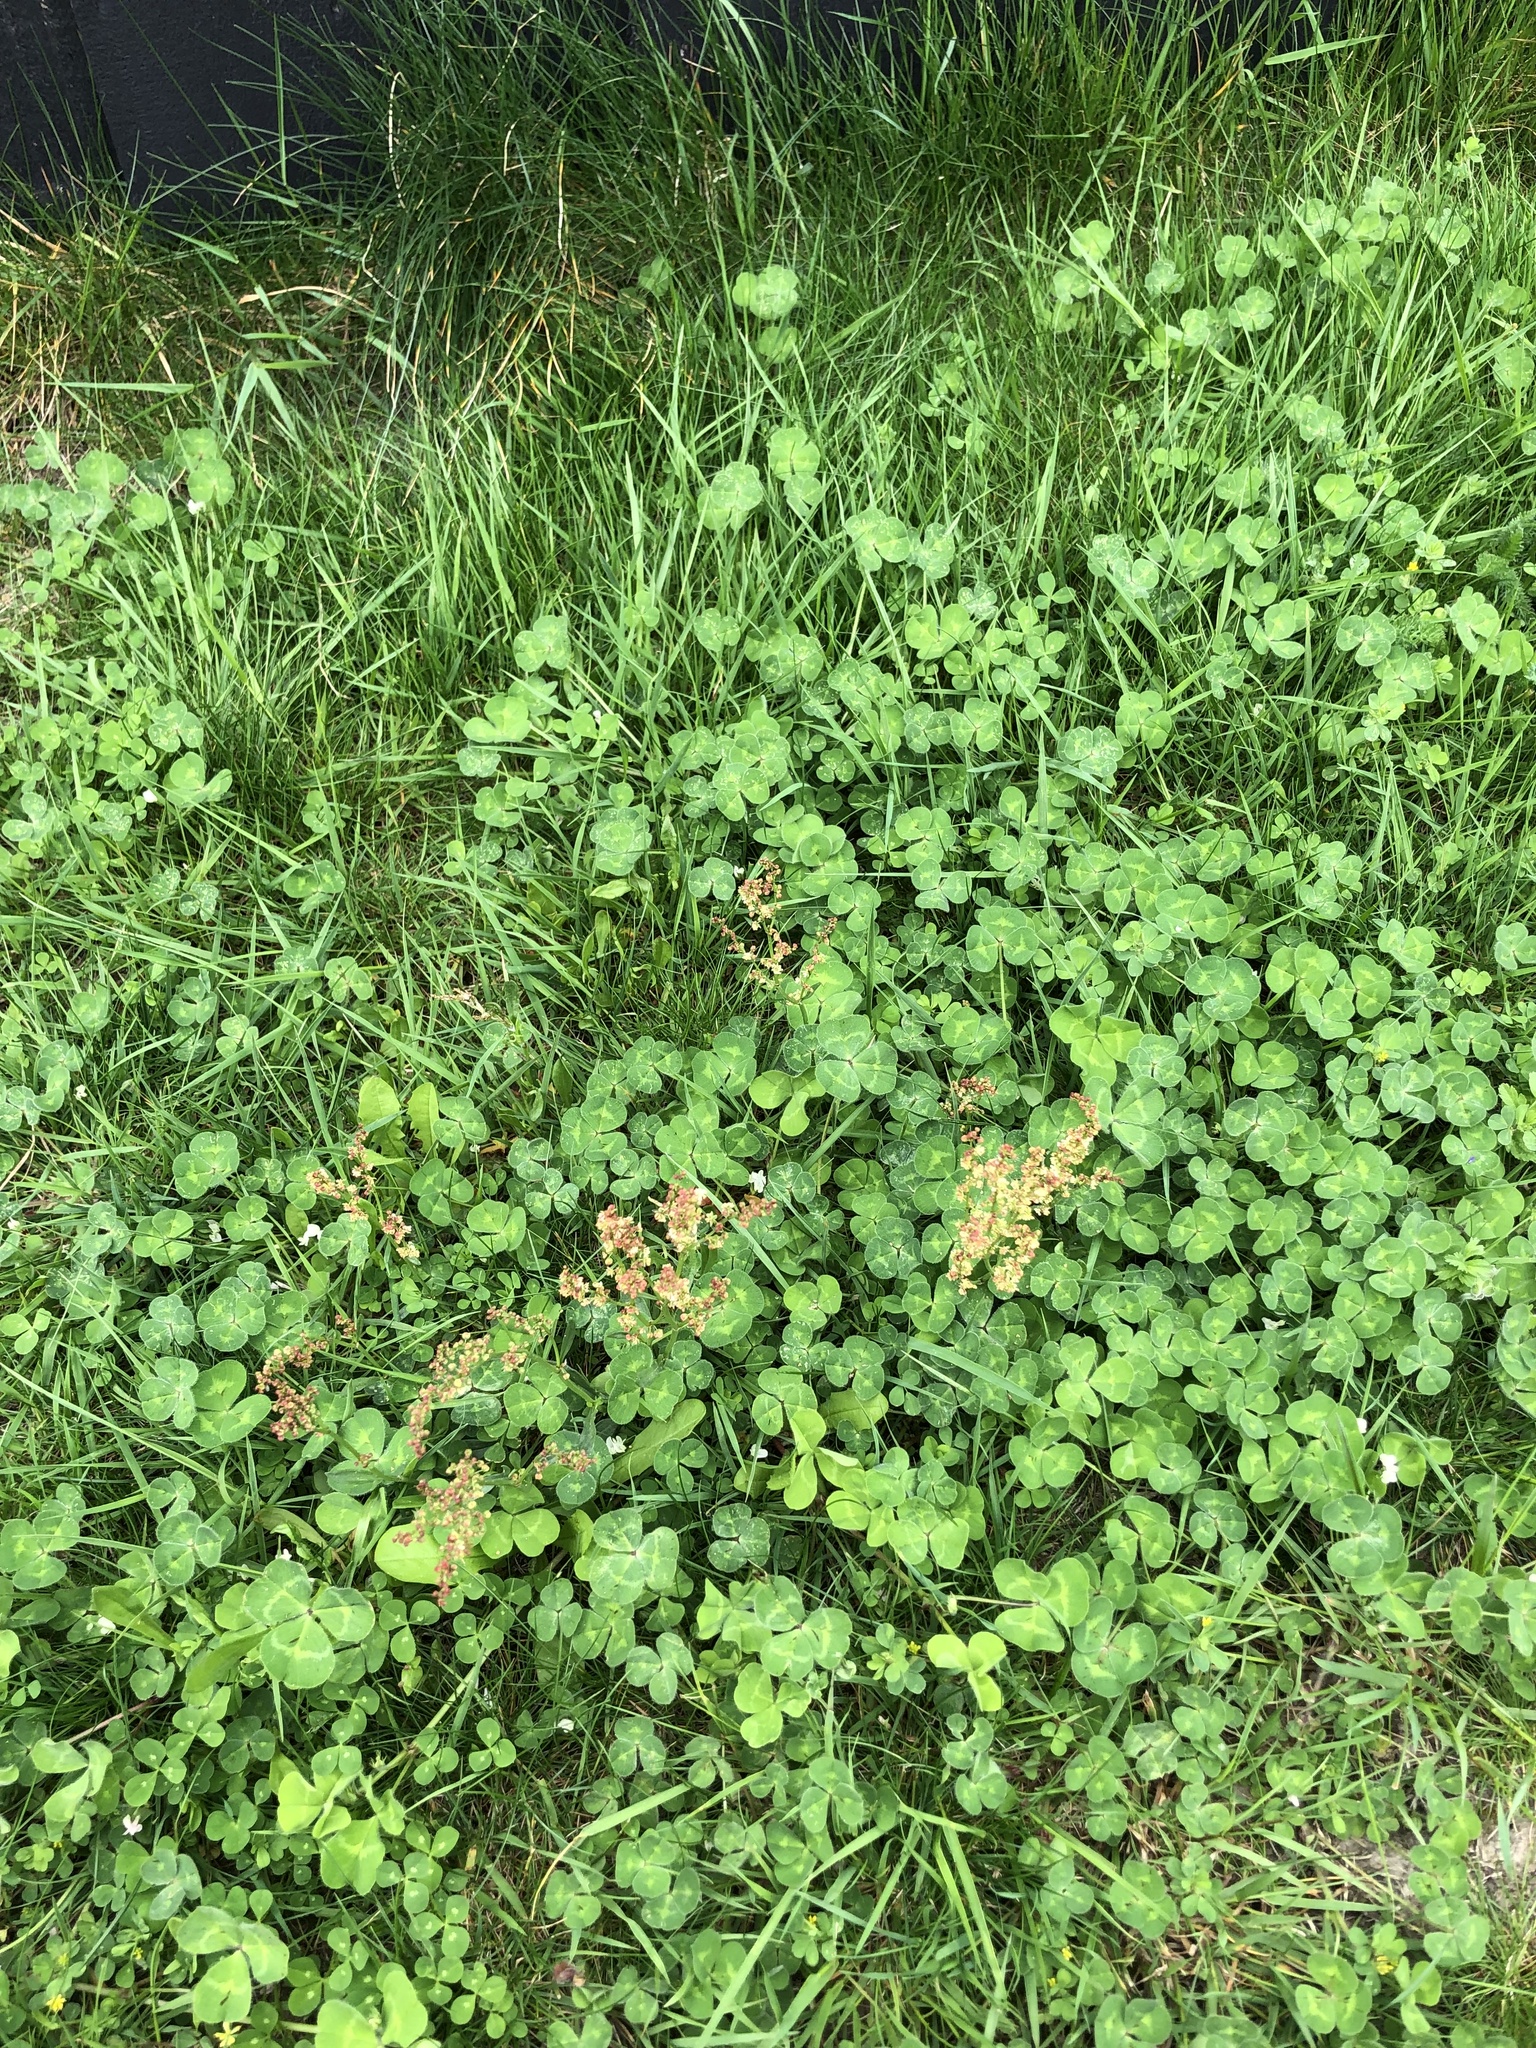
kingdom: Plantae
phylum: Tracheophyta
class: Magnoliopsida
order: Caryophyllales
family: Polygonaceae
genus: Rumex
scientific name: Rumex acetosella
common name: Common sheep sorrel
